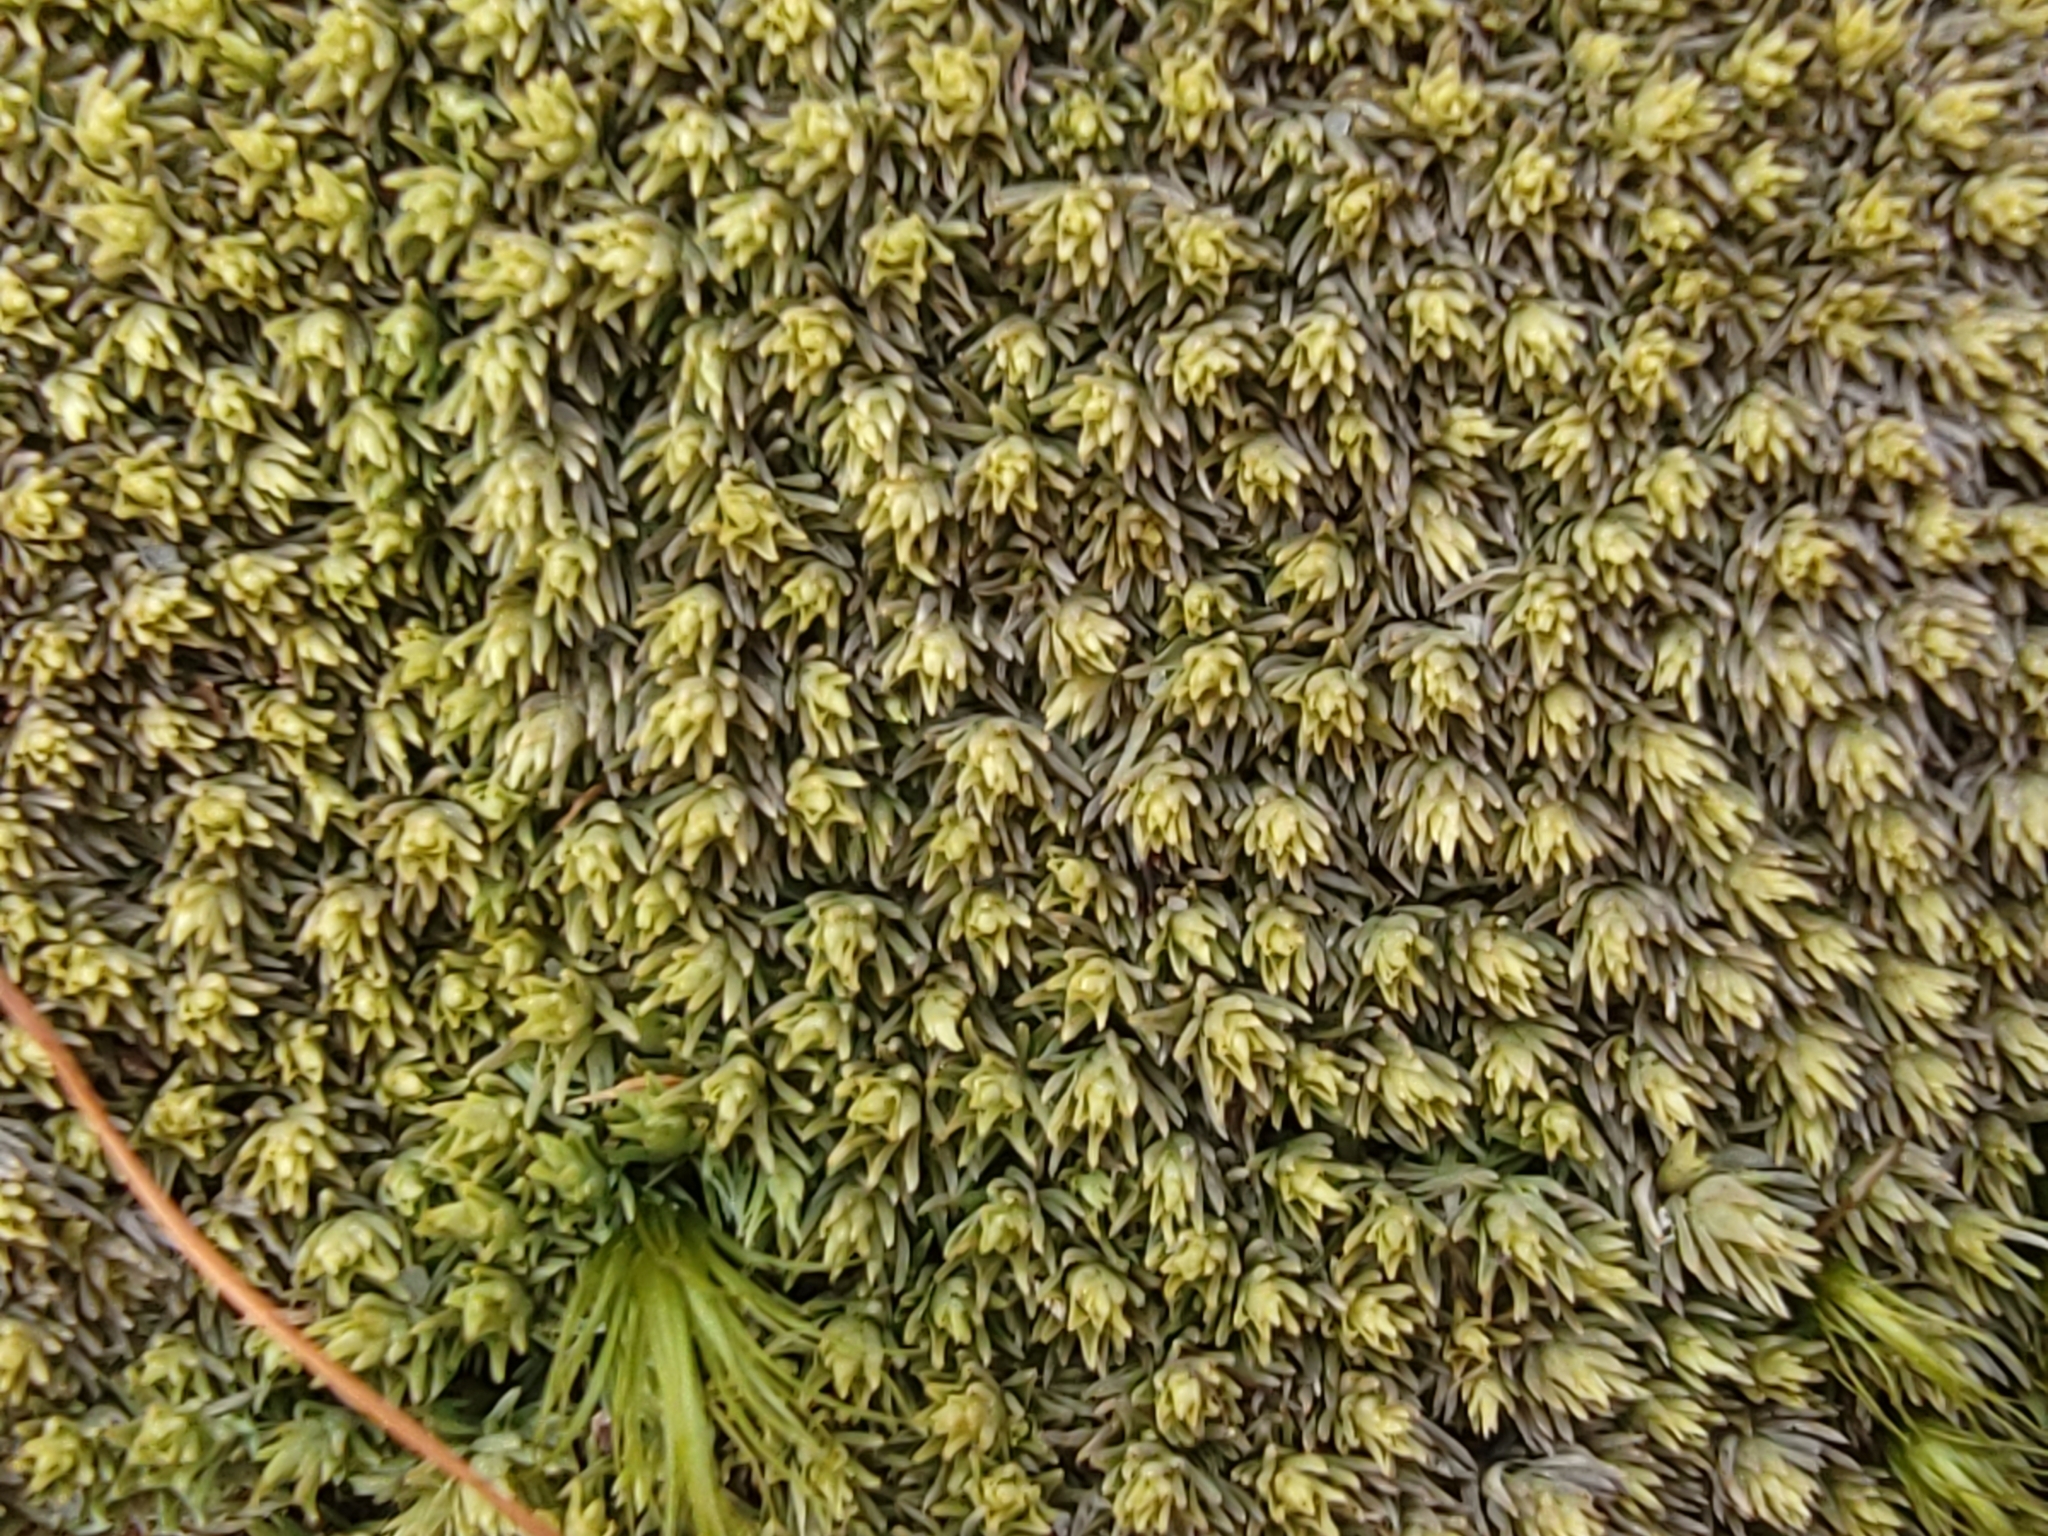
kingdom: Plantae
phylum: Bryophyta
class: Bryopsida
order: Dicranales
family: Leucobryaceae
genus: Leucobryum
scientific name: Leucobryum glaucum
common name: Large white-moss
